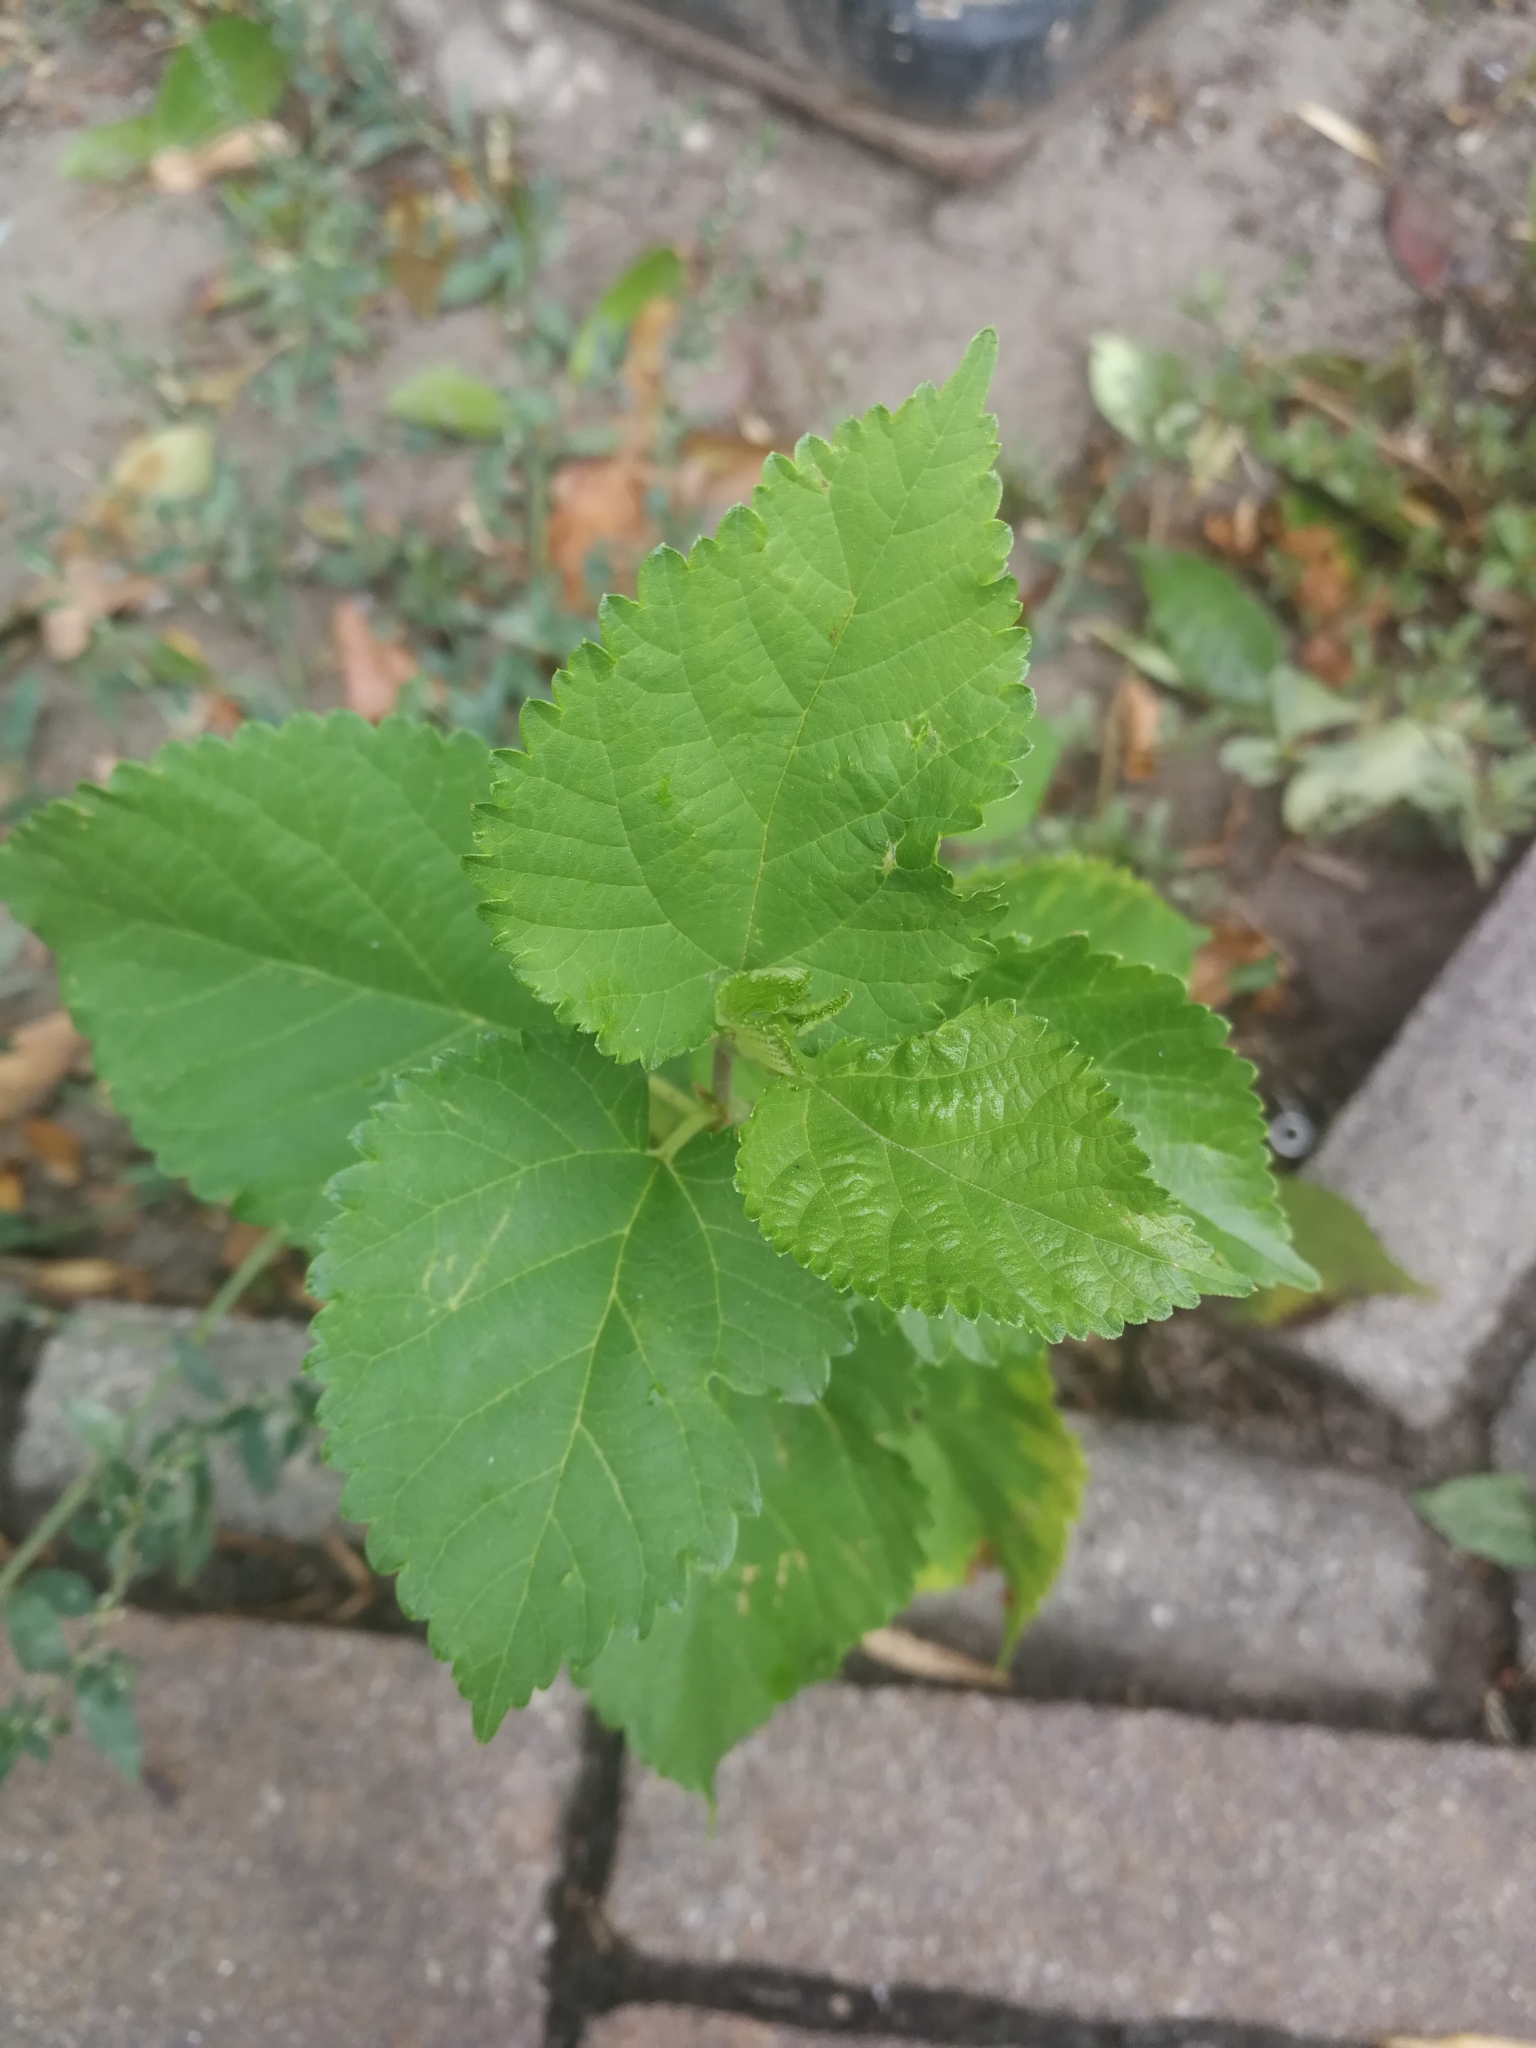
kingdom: Plantae
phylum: Tracheophyta
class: Magnoliopsida
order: Rosales
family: Moraceae
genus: Morus
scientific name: Morus alba
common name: White mulberry
